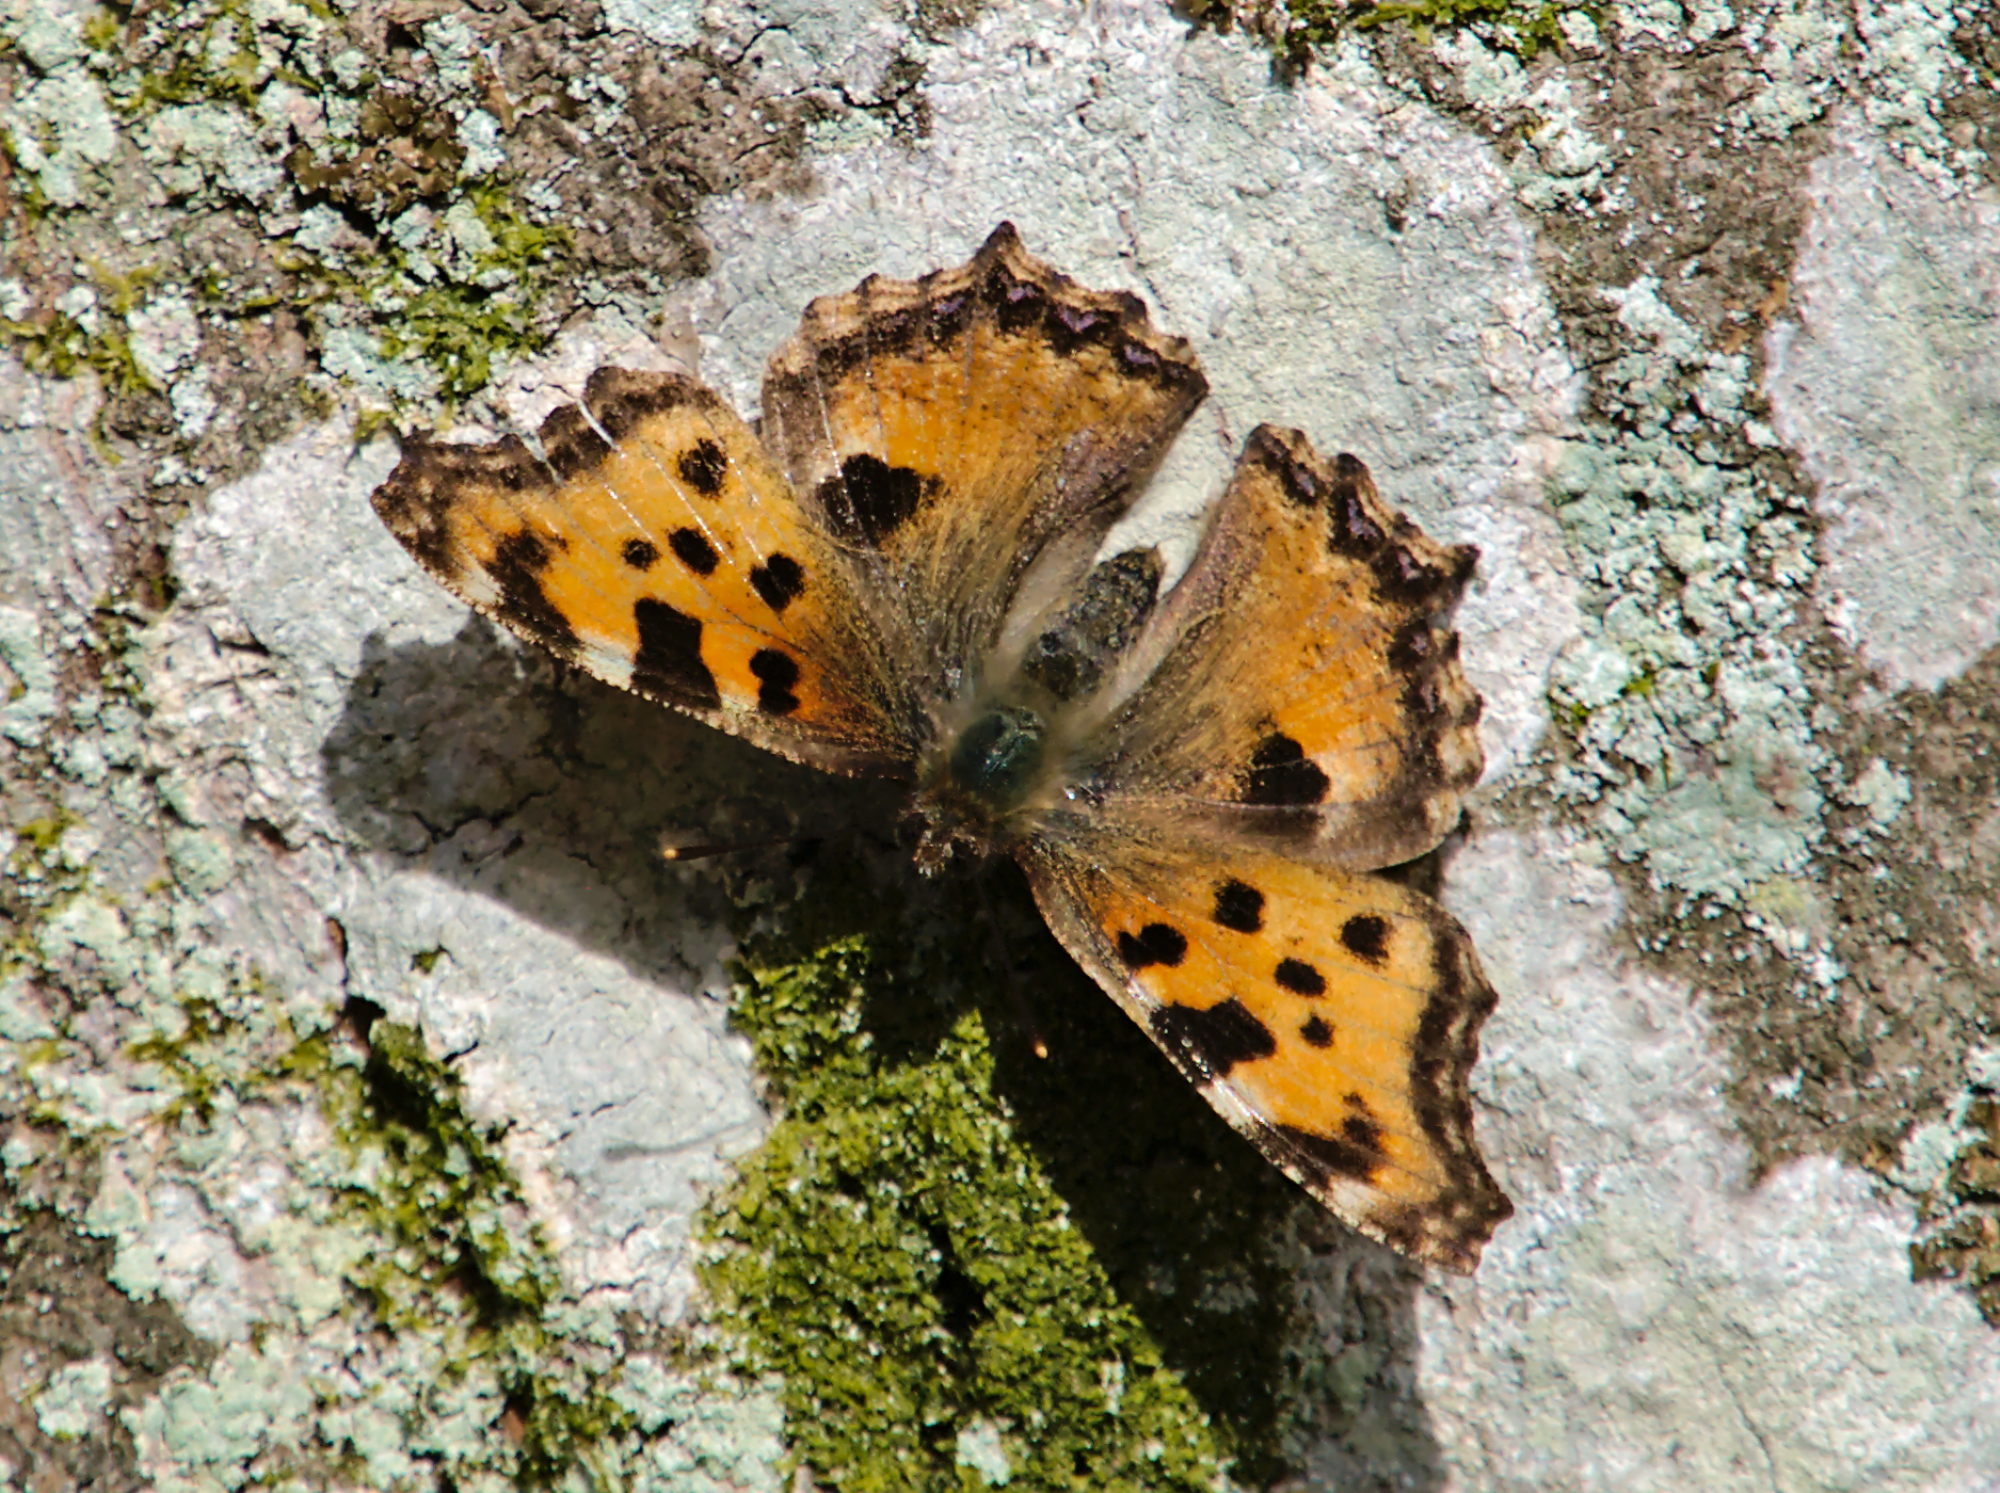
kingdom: Animalia
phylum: Arthropoda
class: Insecta
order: Lepidoptera
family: Nymphalidae
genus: Nymphalis
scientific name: Nymphalis polychloros
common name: Large tortoiseshell
